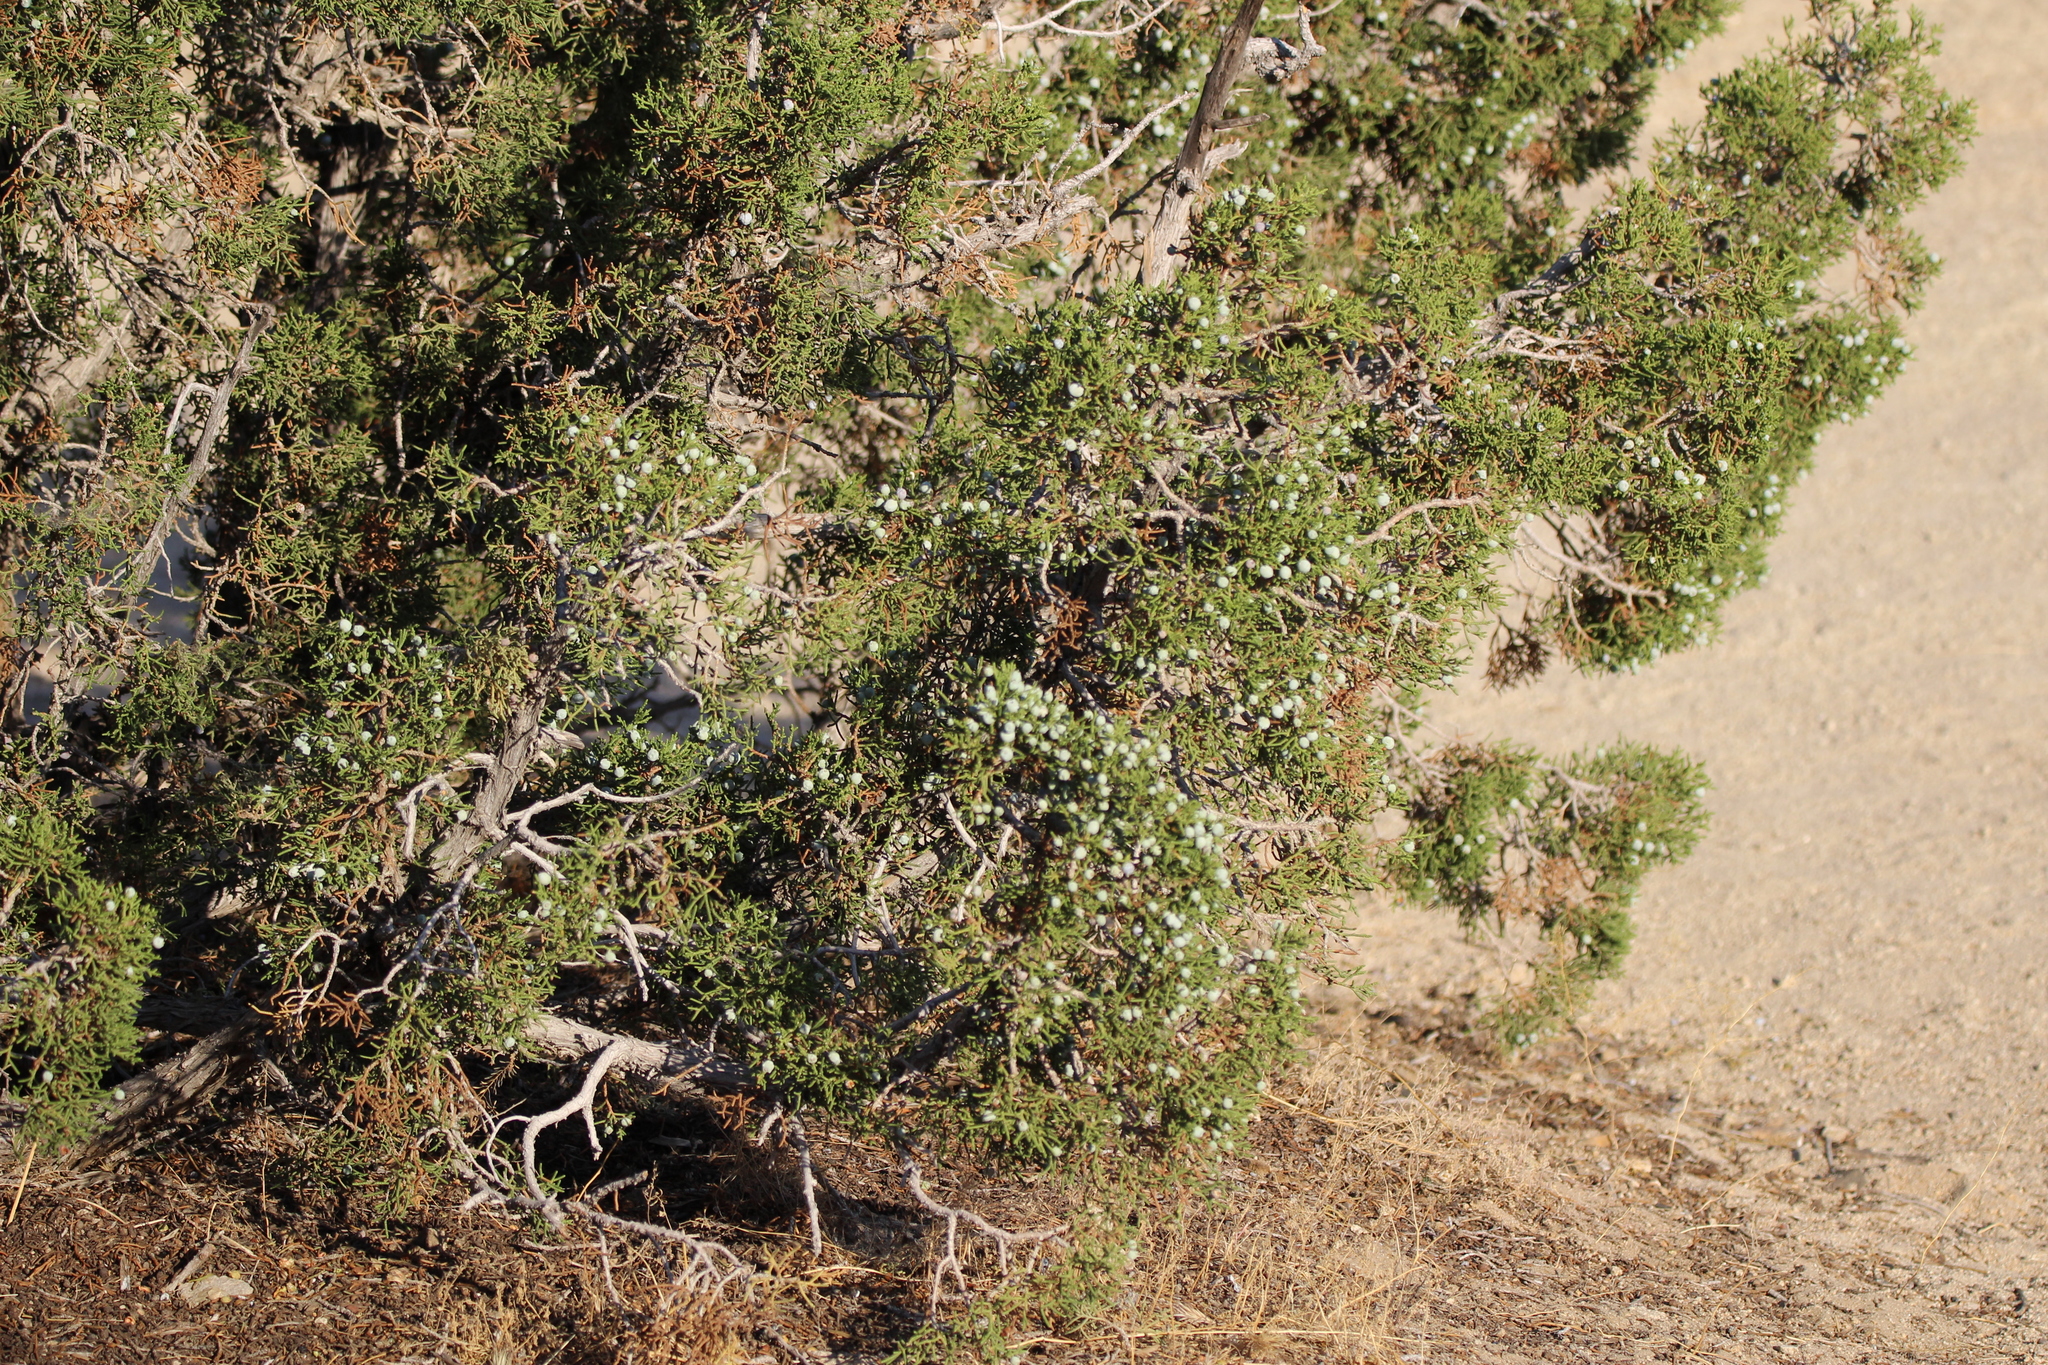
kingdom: Plantae
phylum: Tracheophyta
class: Pinopsida
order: Pinales
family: Cupressaceae
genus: Juniperus
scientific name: Juniperus californica
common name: California juniper
